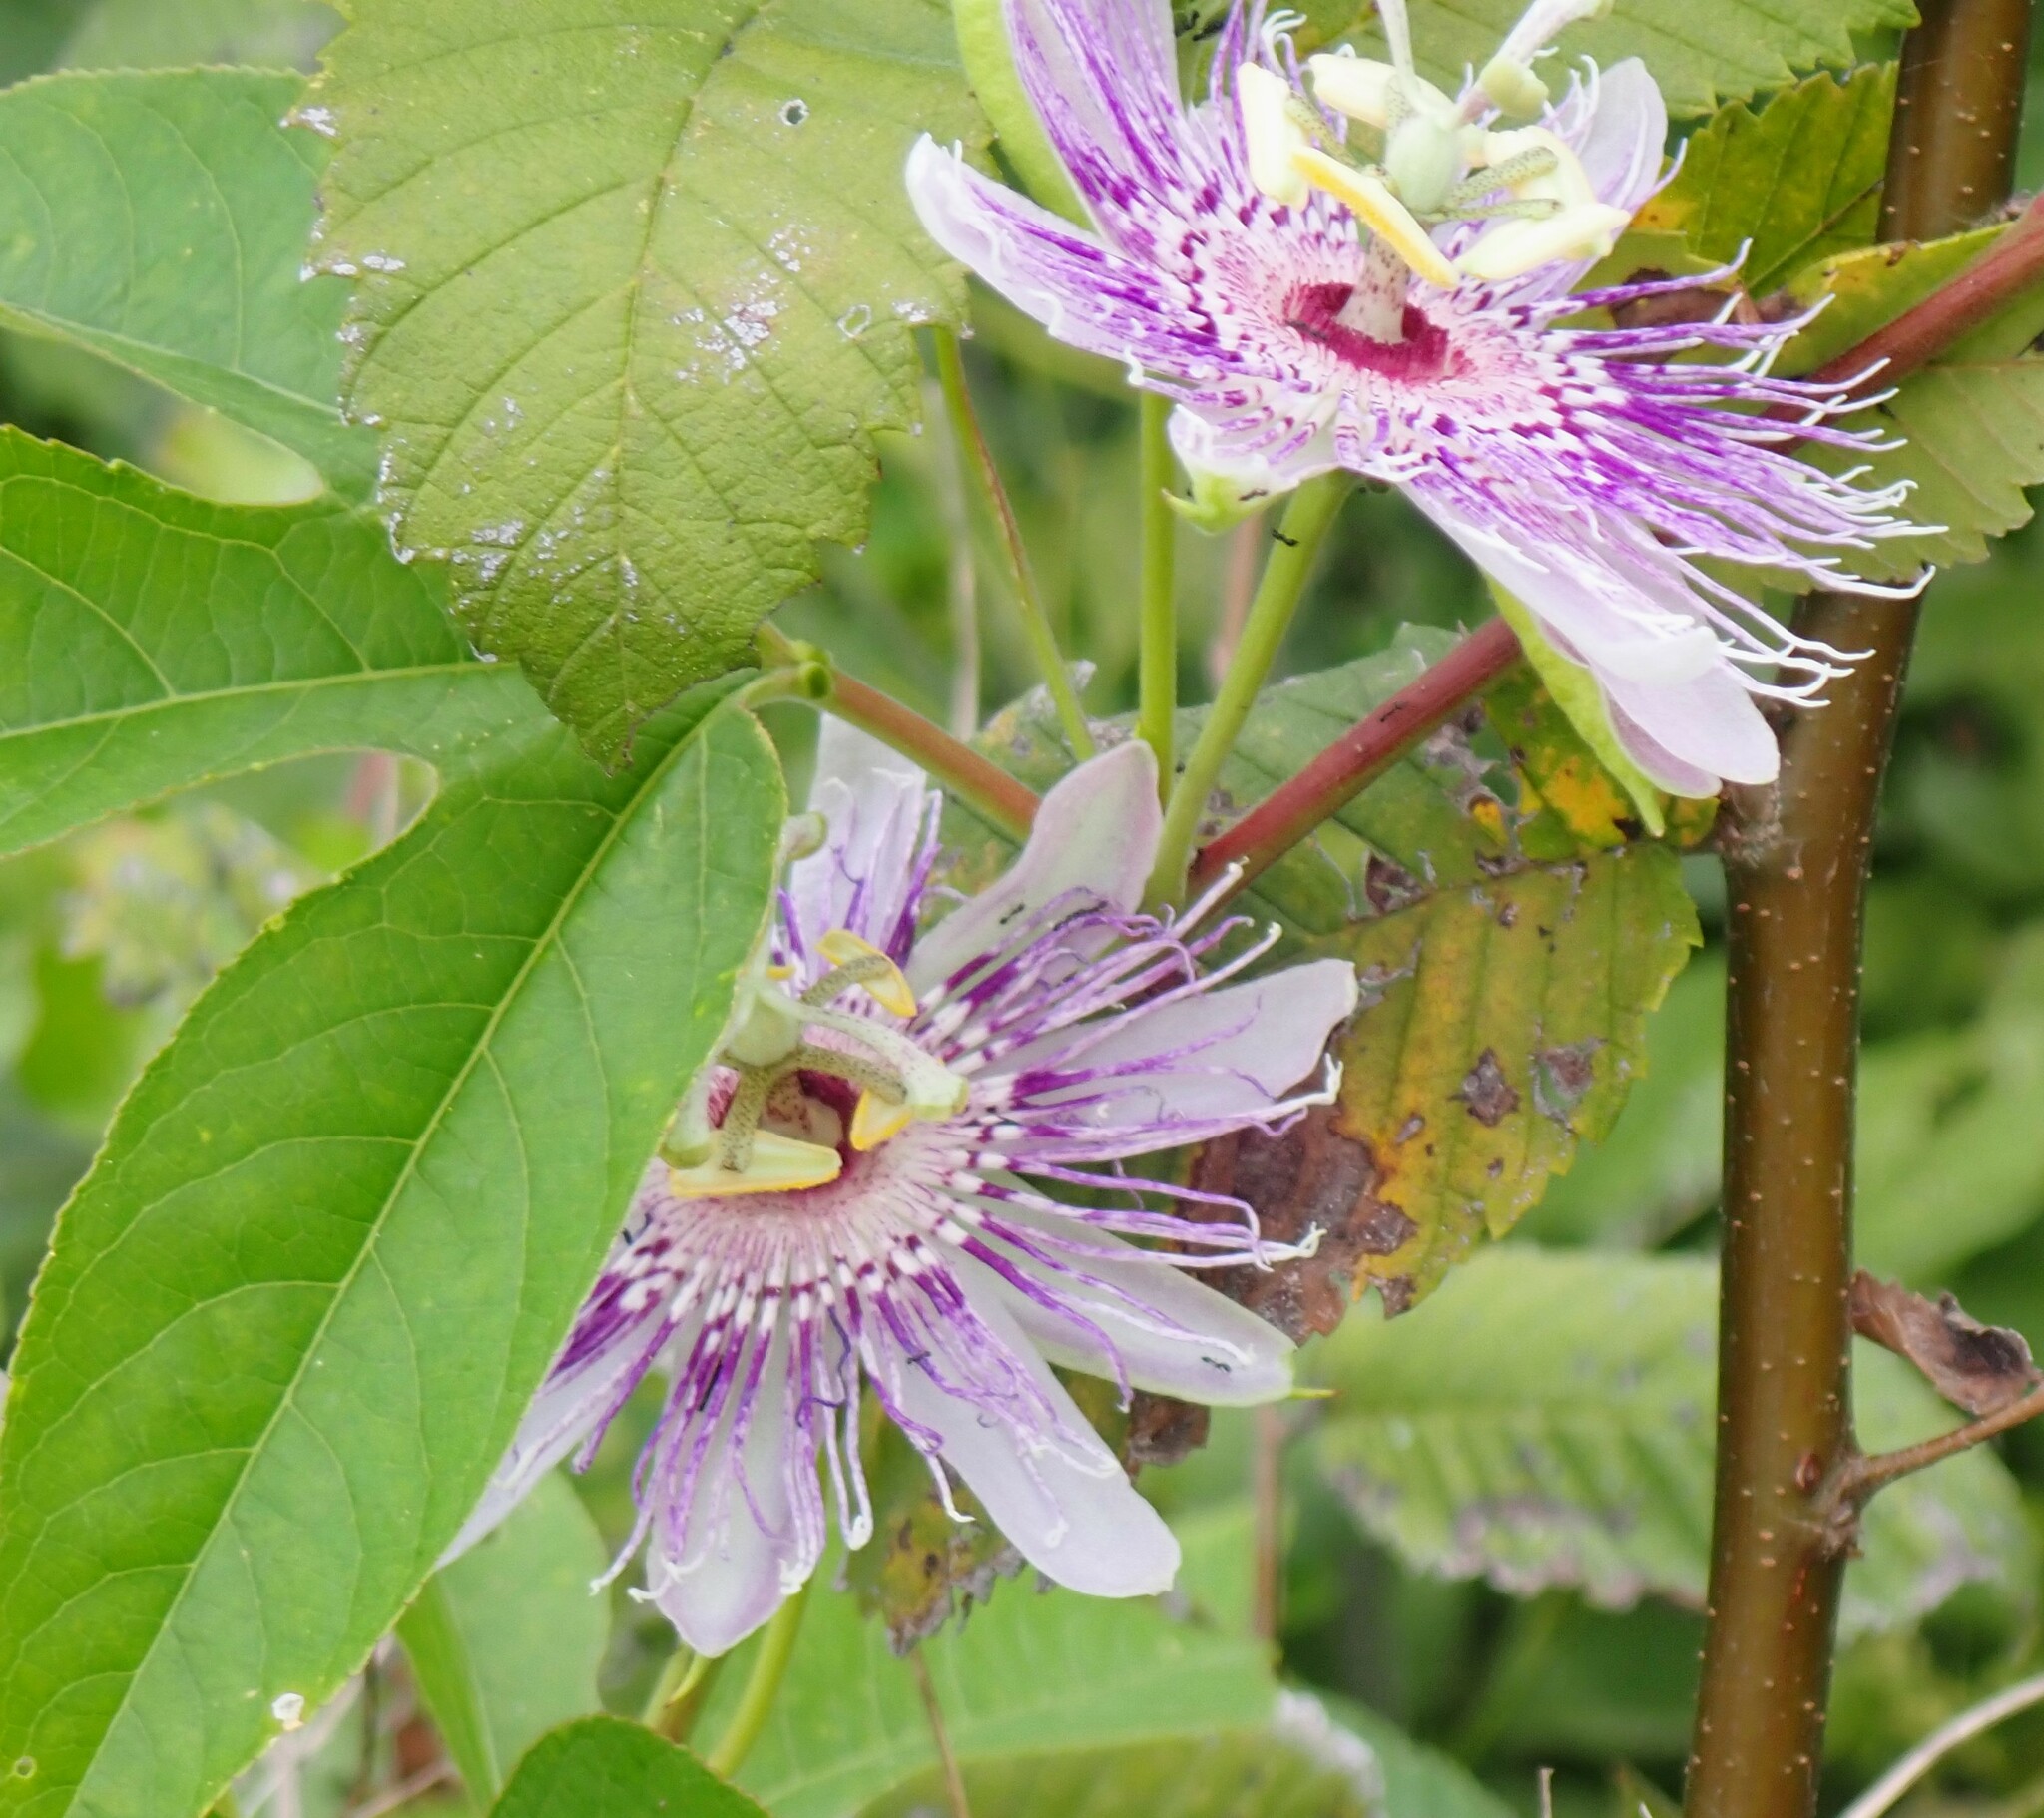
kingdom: Plantae
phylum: Tracheophyta
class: Magnoliopsida
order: Malpighiales
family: Passifloraceae
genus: Passiflora
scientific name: Passiflora incarnata
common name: Apricot-vine
